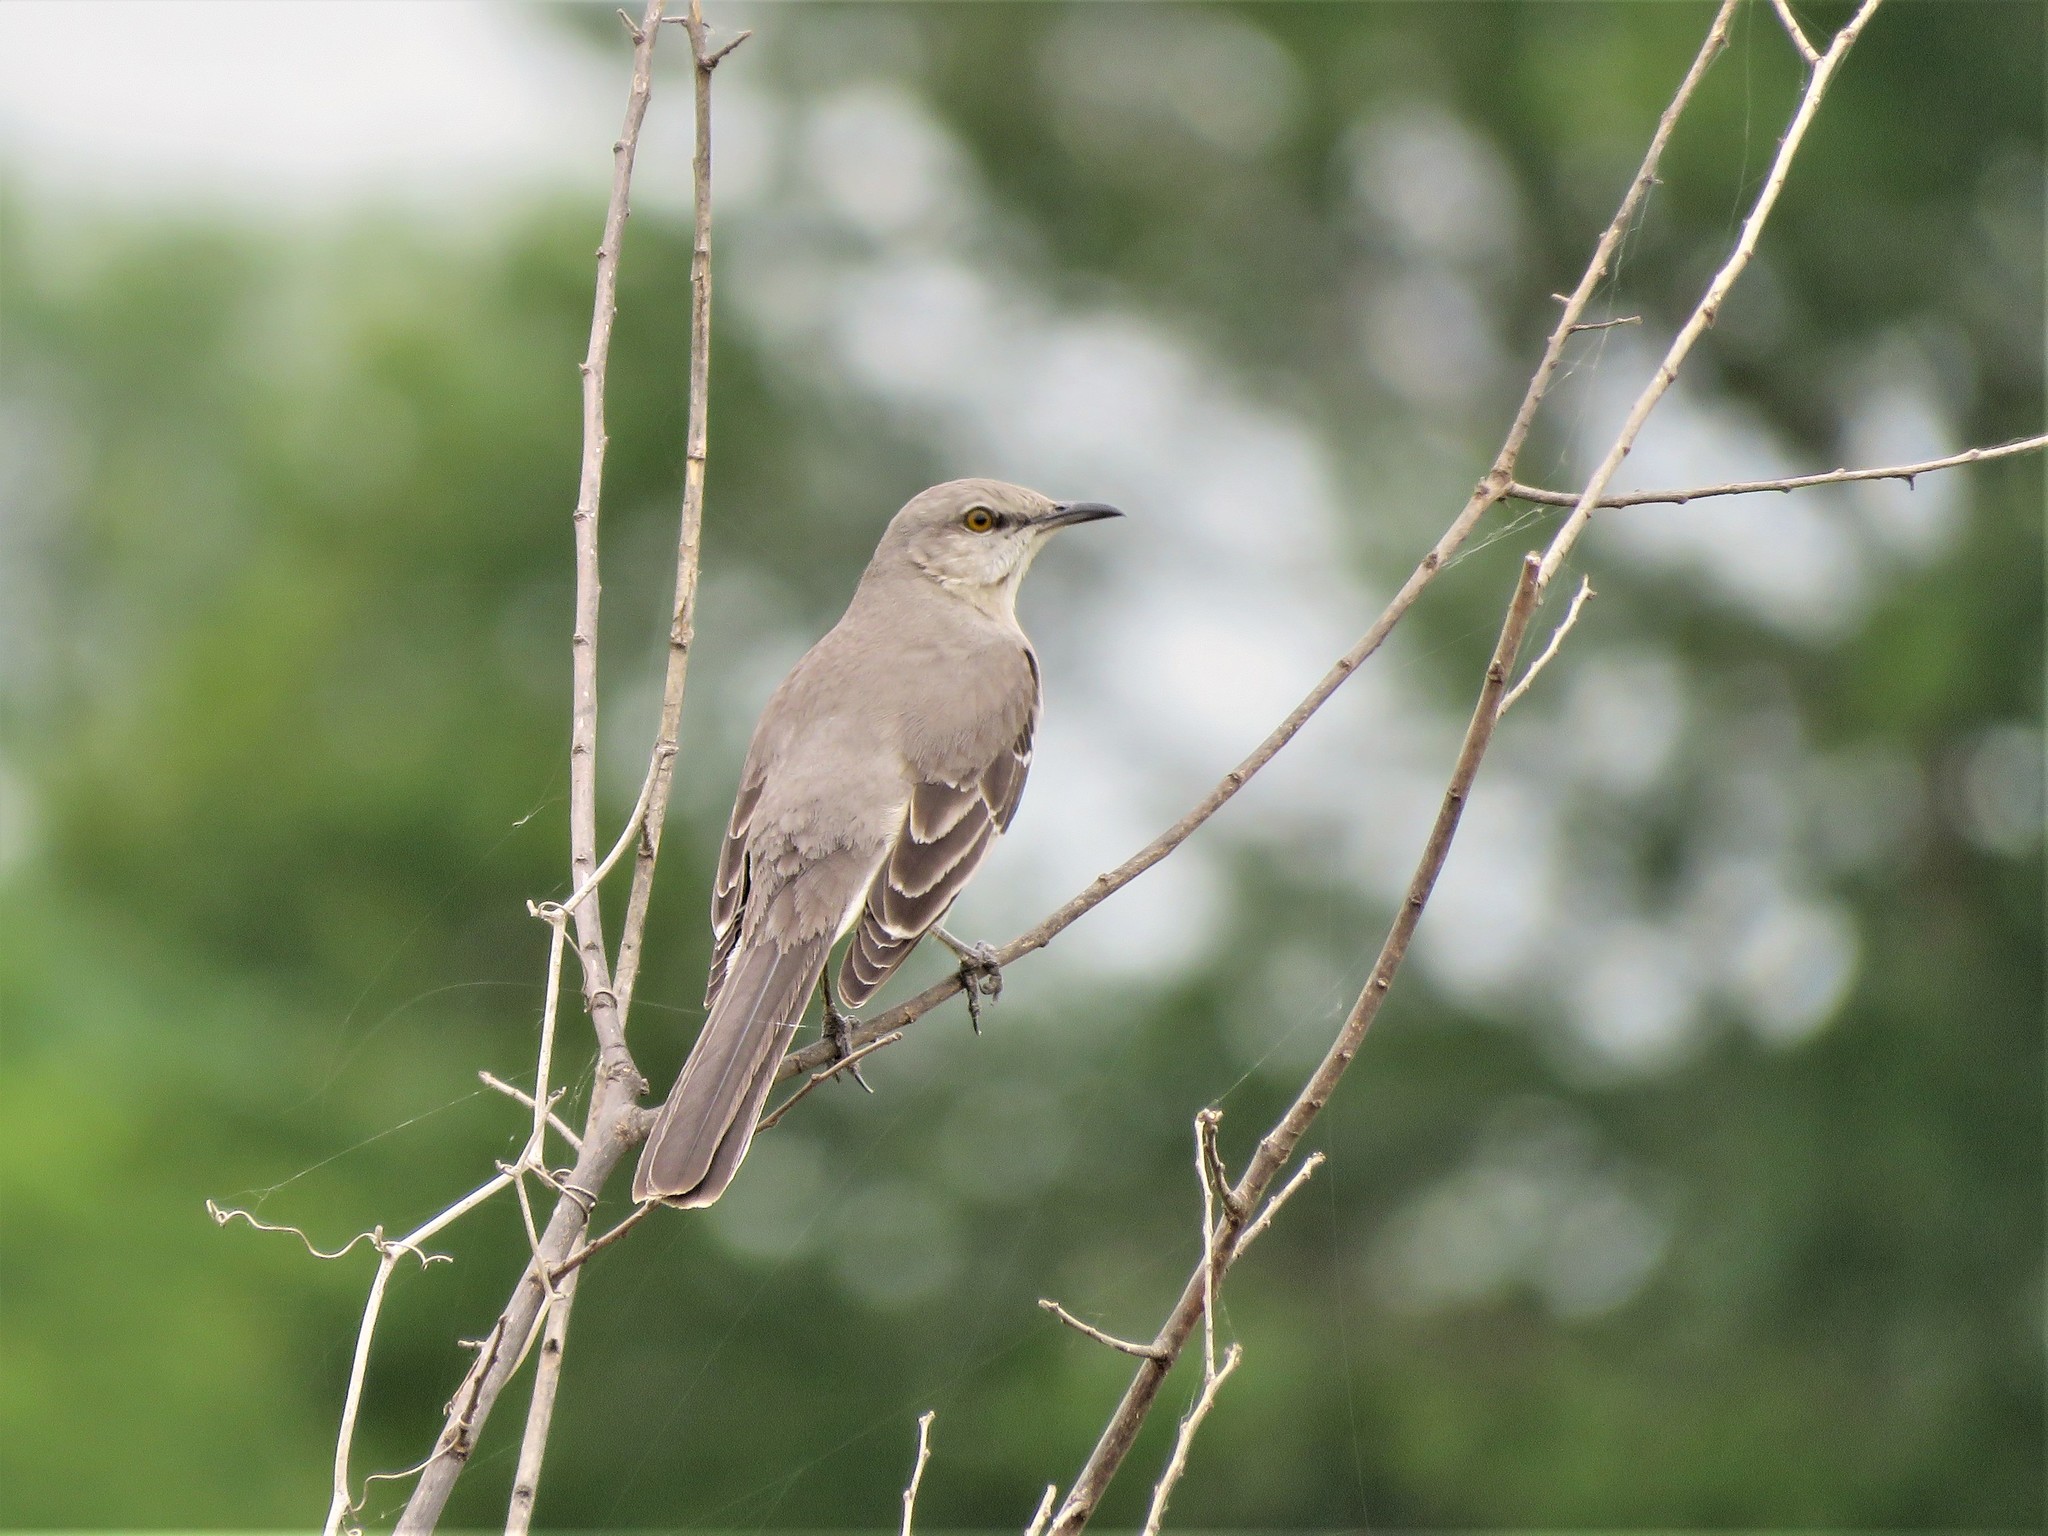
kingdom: Animalia
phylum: Chordata
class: Aves
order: Passeriformes
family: Mimidae
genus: Mimus
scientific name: Mimus polyglottos
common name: Northern mockingbird
